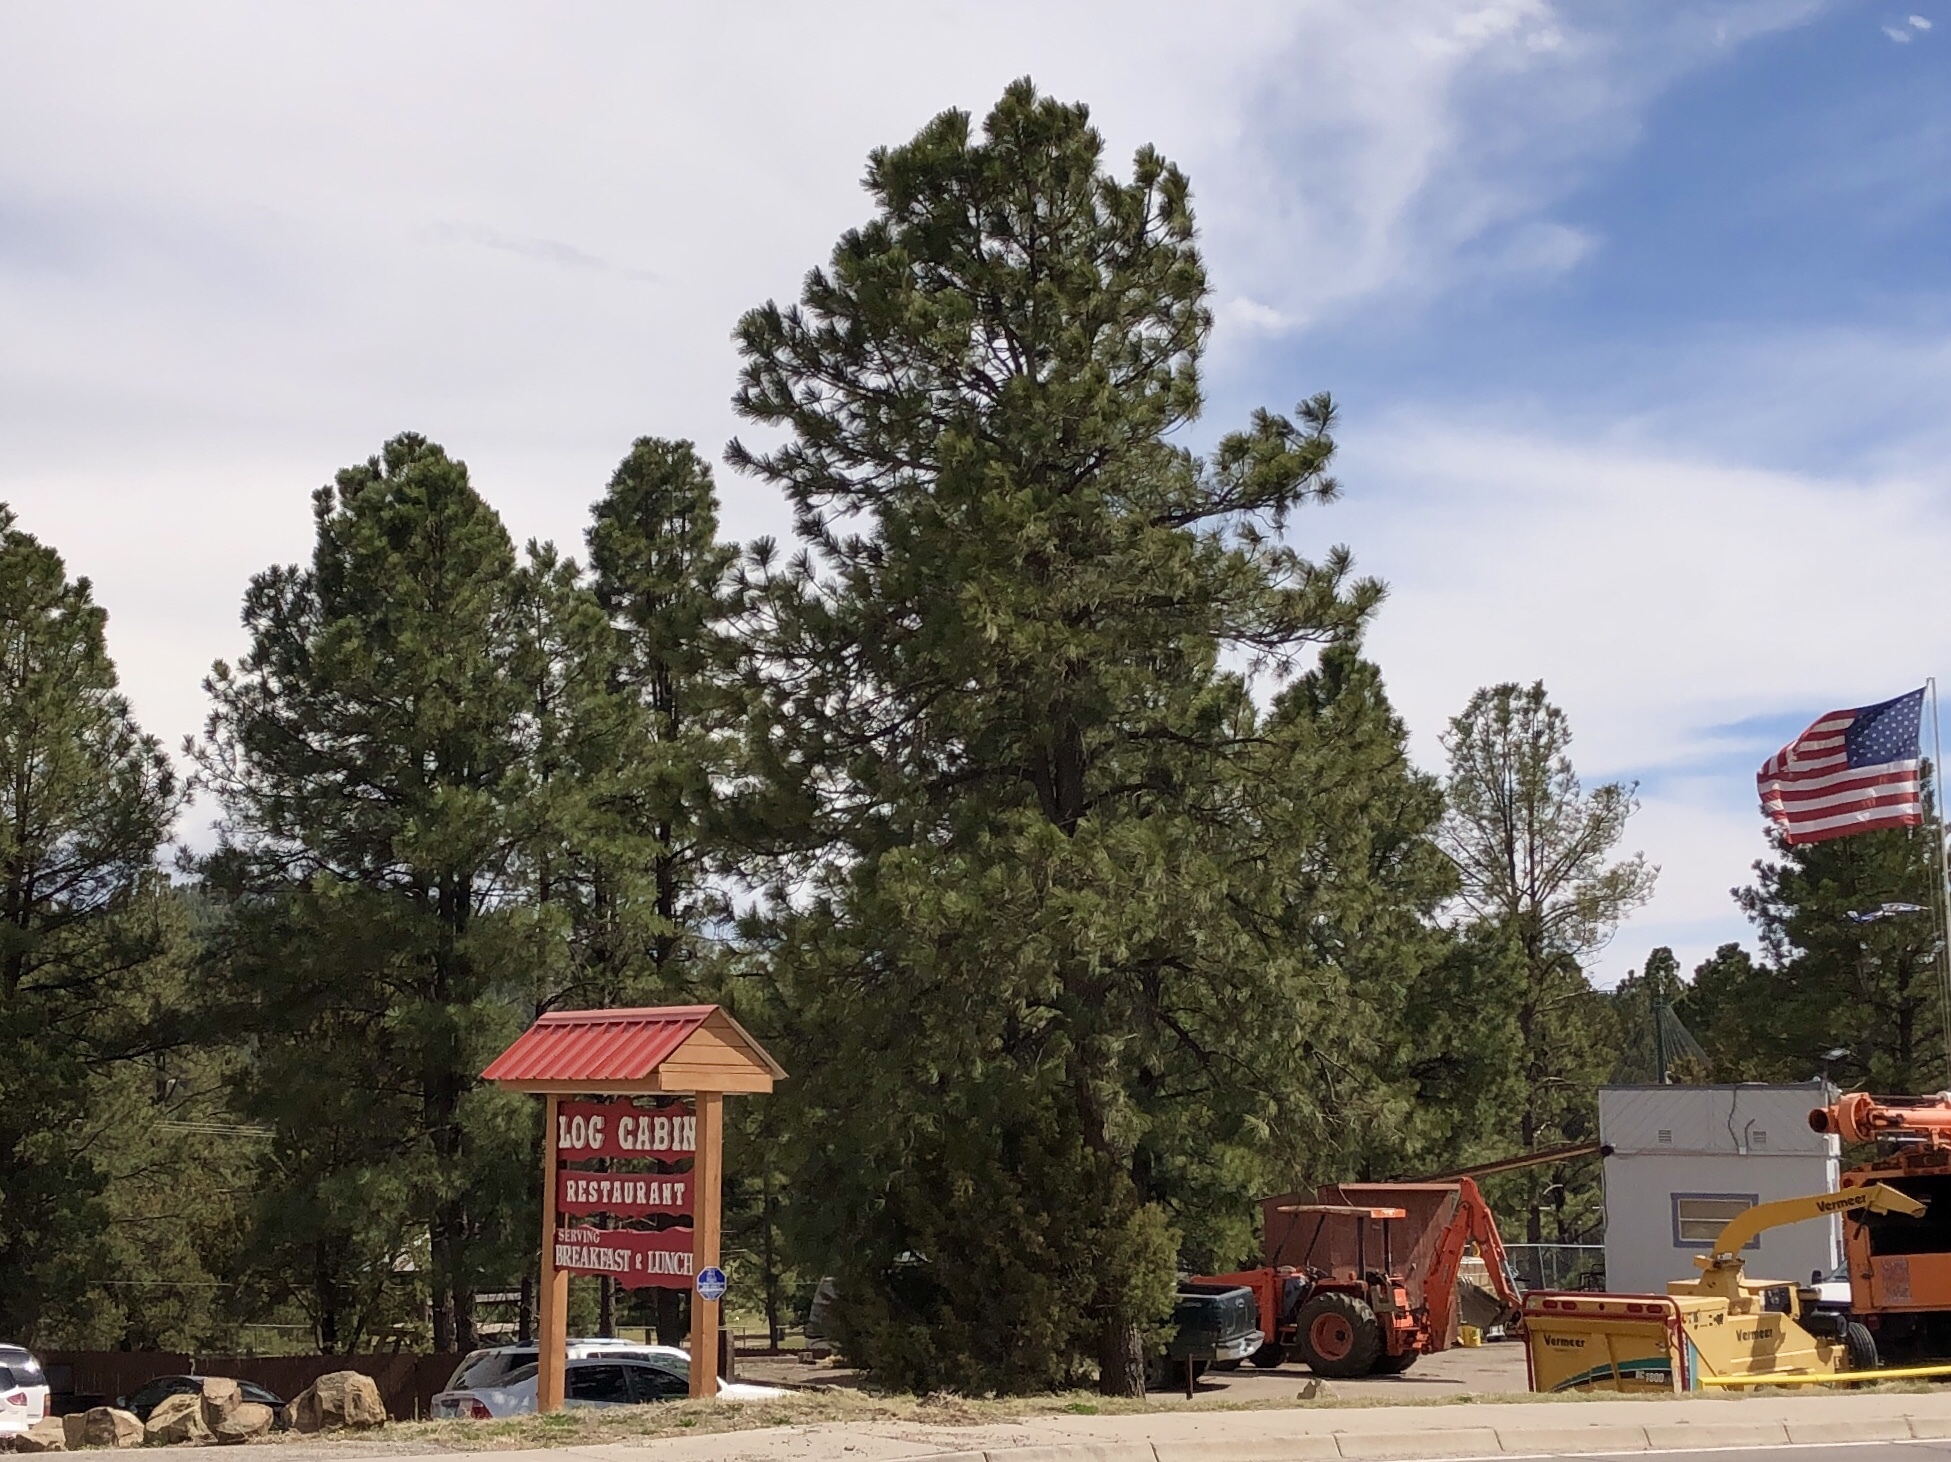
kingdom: Plantae
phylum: Tracheophyta
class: Pinopsida
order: Pinales
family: Pinaceae
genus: Pinus
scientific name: Pinus ponderosa
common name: Western yellow-pine
